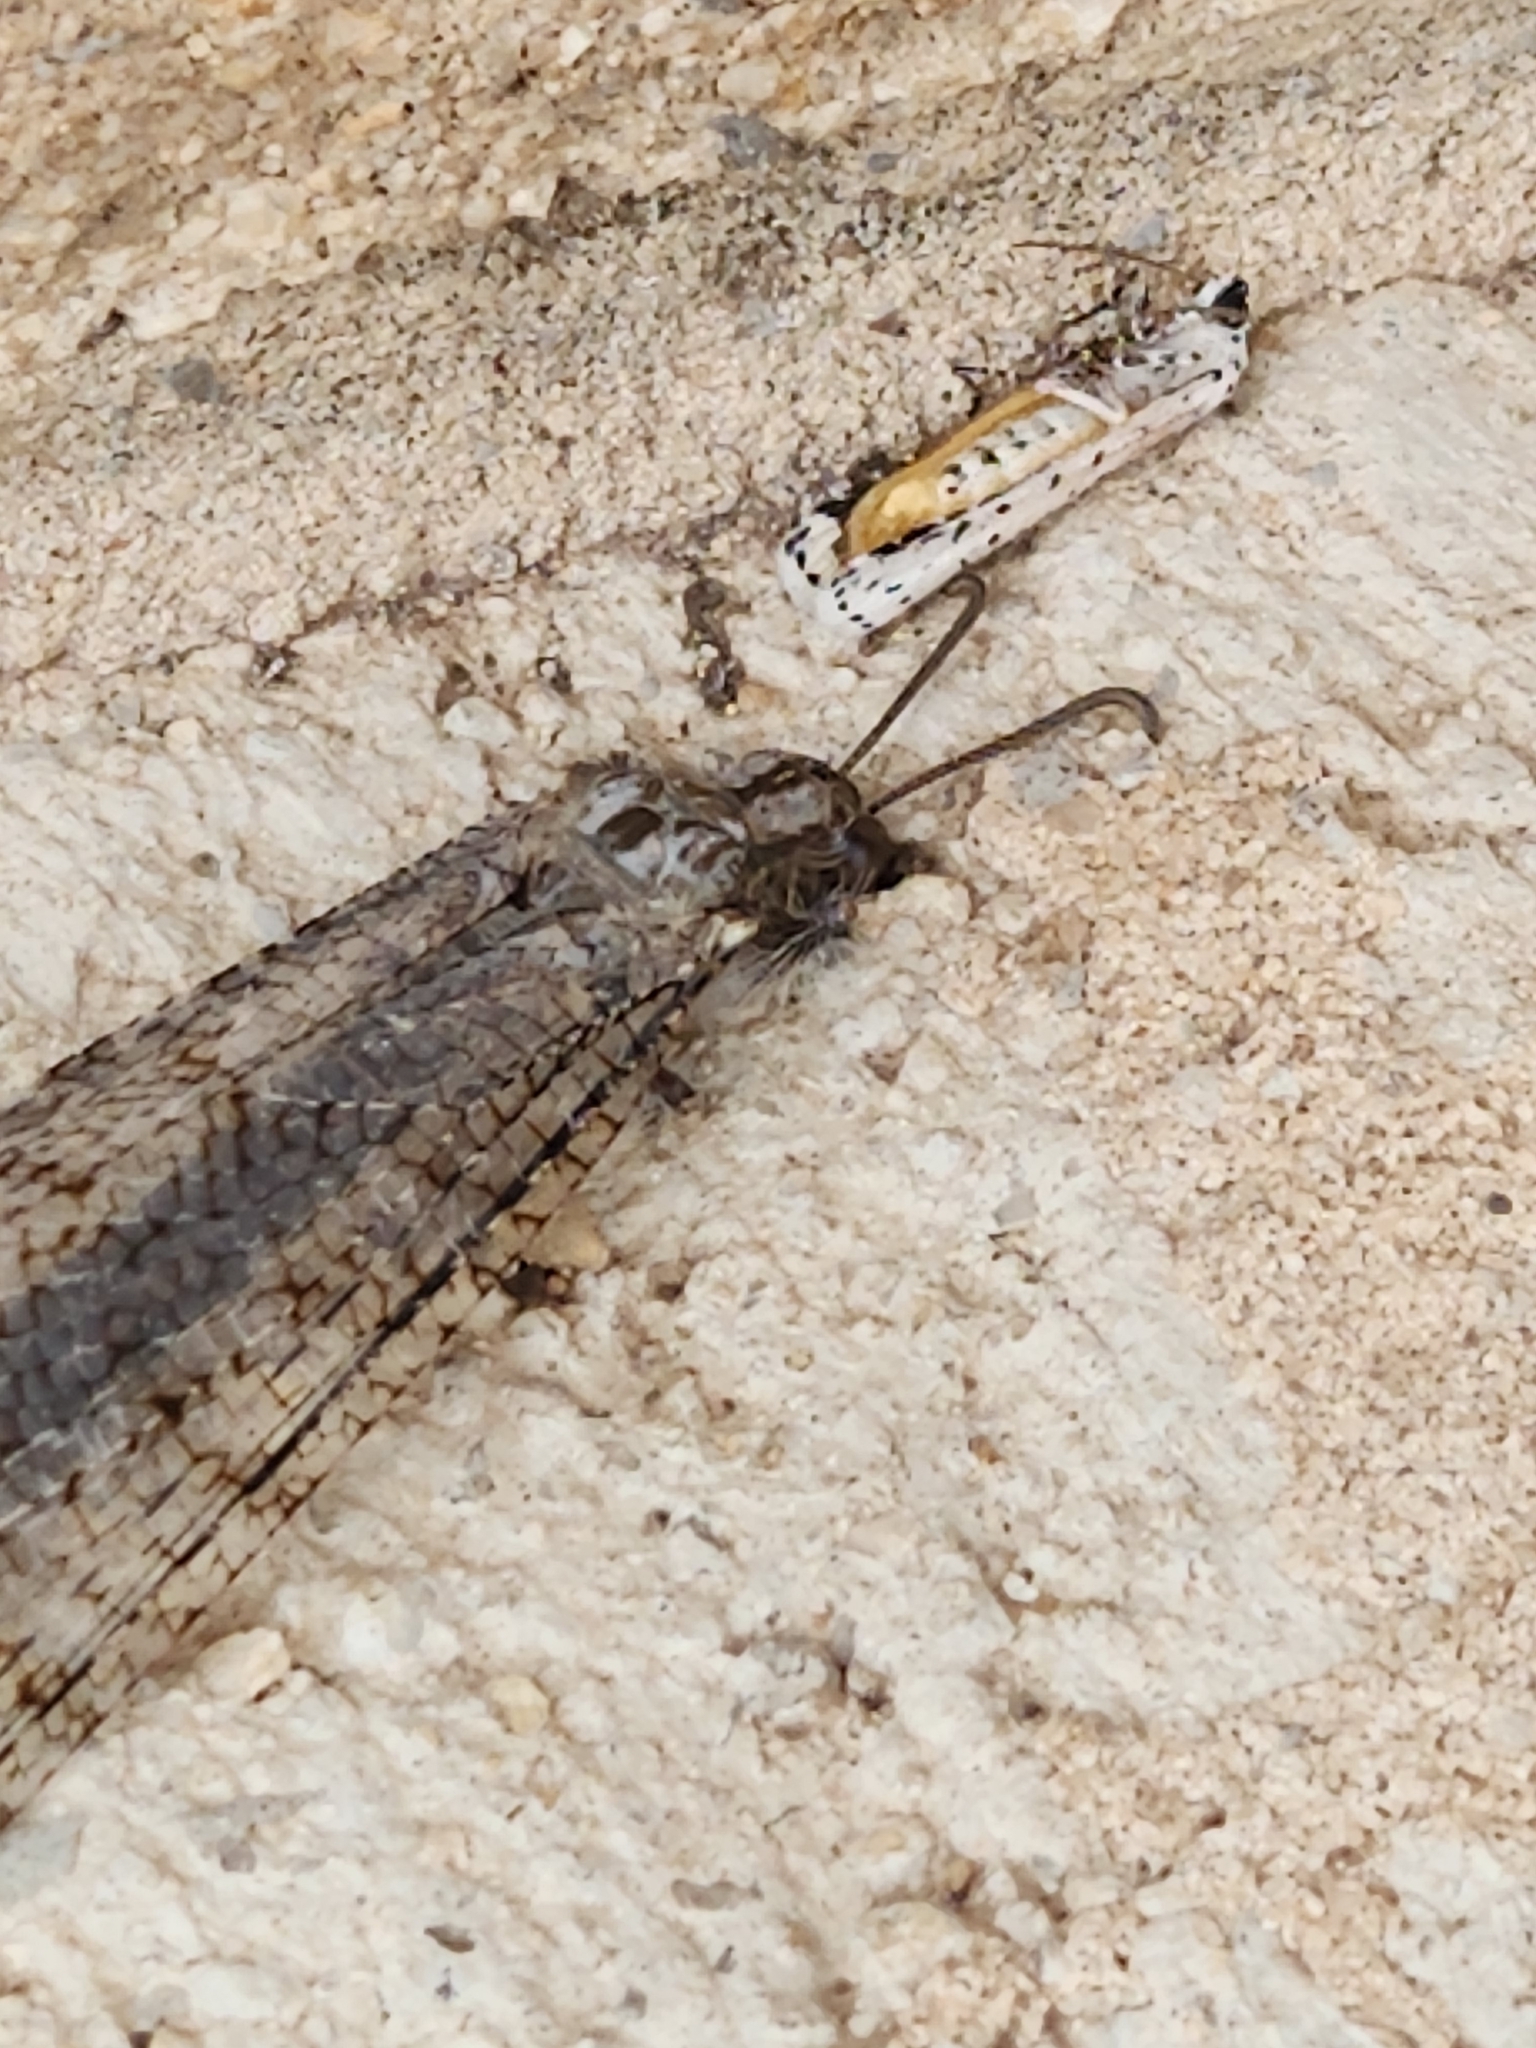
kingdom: Animalia
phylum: Arthropoda
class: Insecta
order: Neuroptera
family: Myrmeleontidae
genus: Vella
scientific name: Vella fallax
